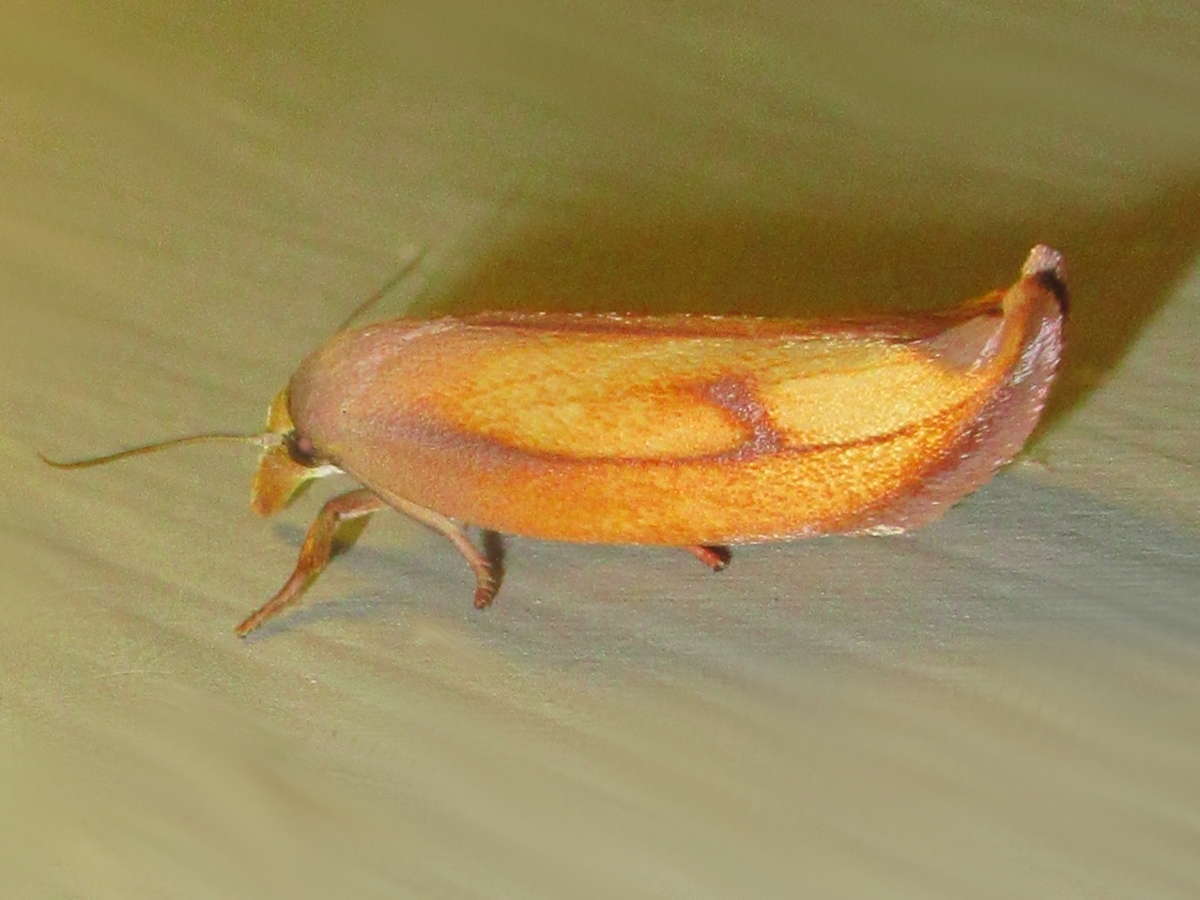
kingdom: Animalia
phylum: Arthropoda
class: Insecta
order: Lepidoptera
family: Oecophoridae
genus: Wingia
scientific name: Wingia aurata
